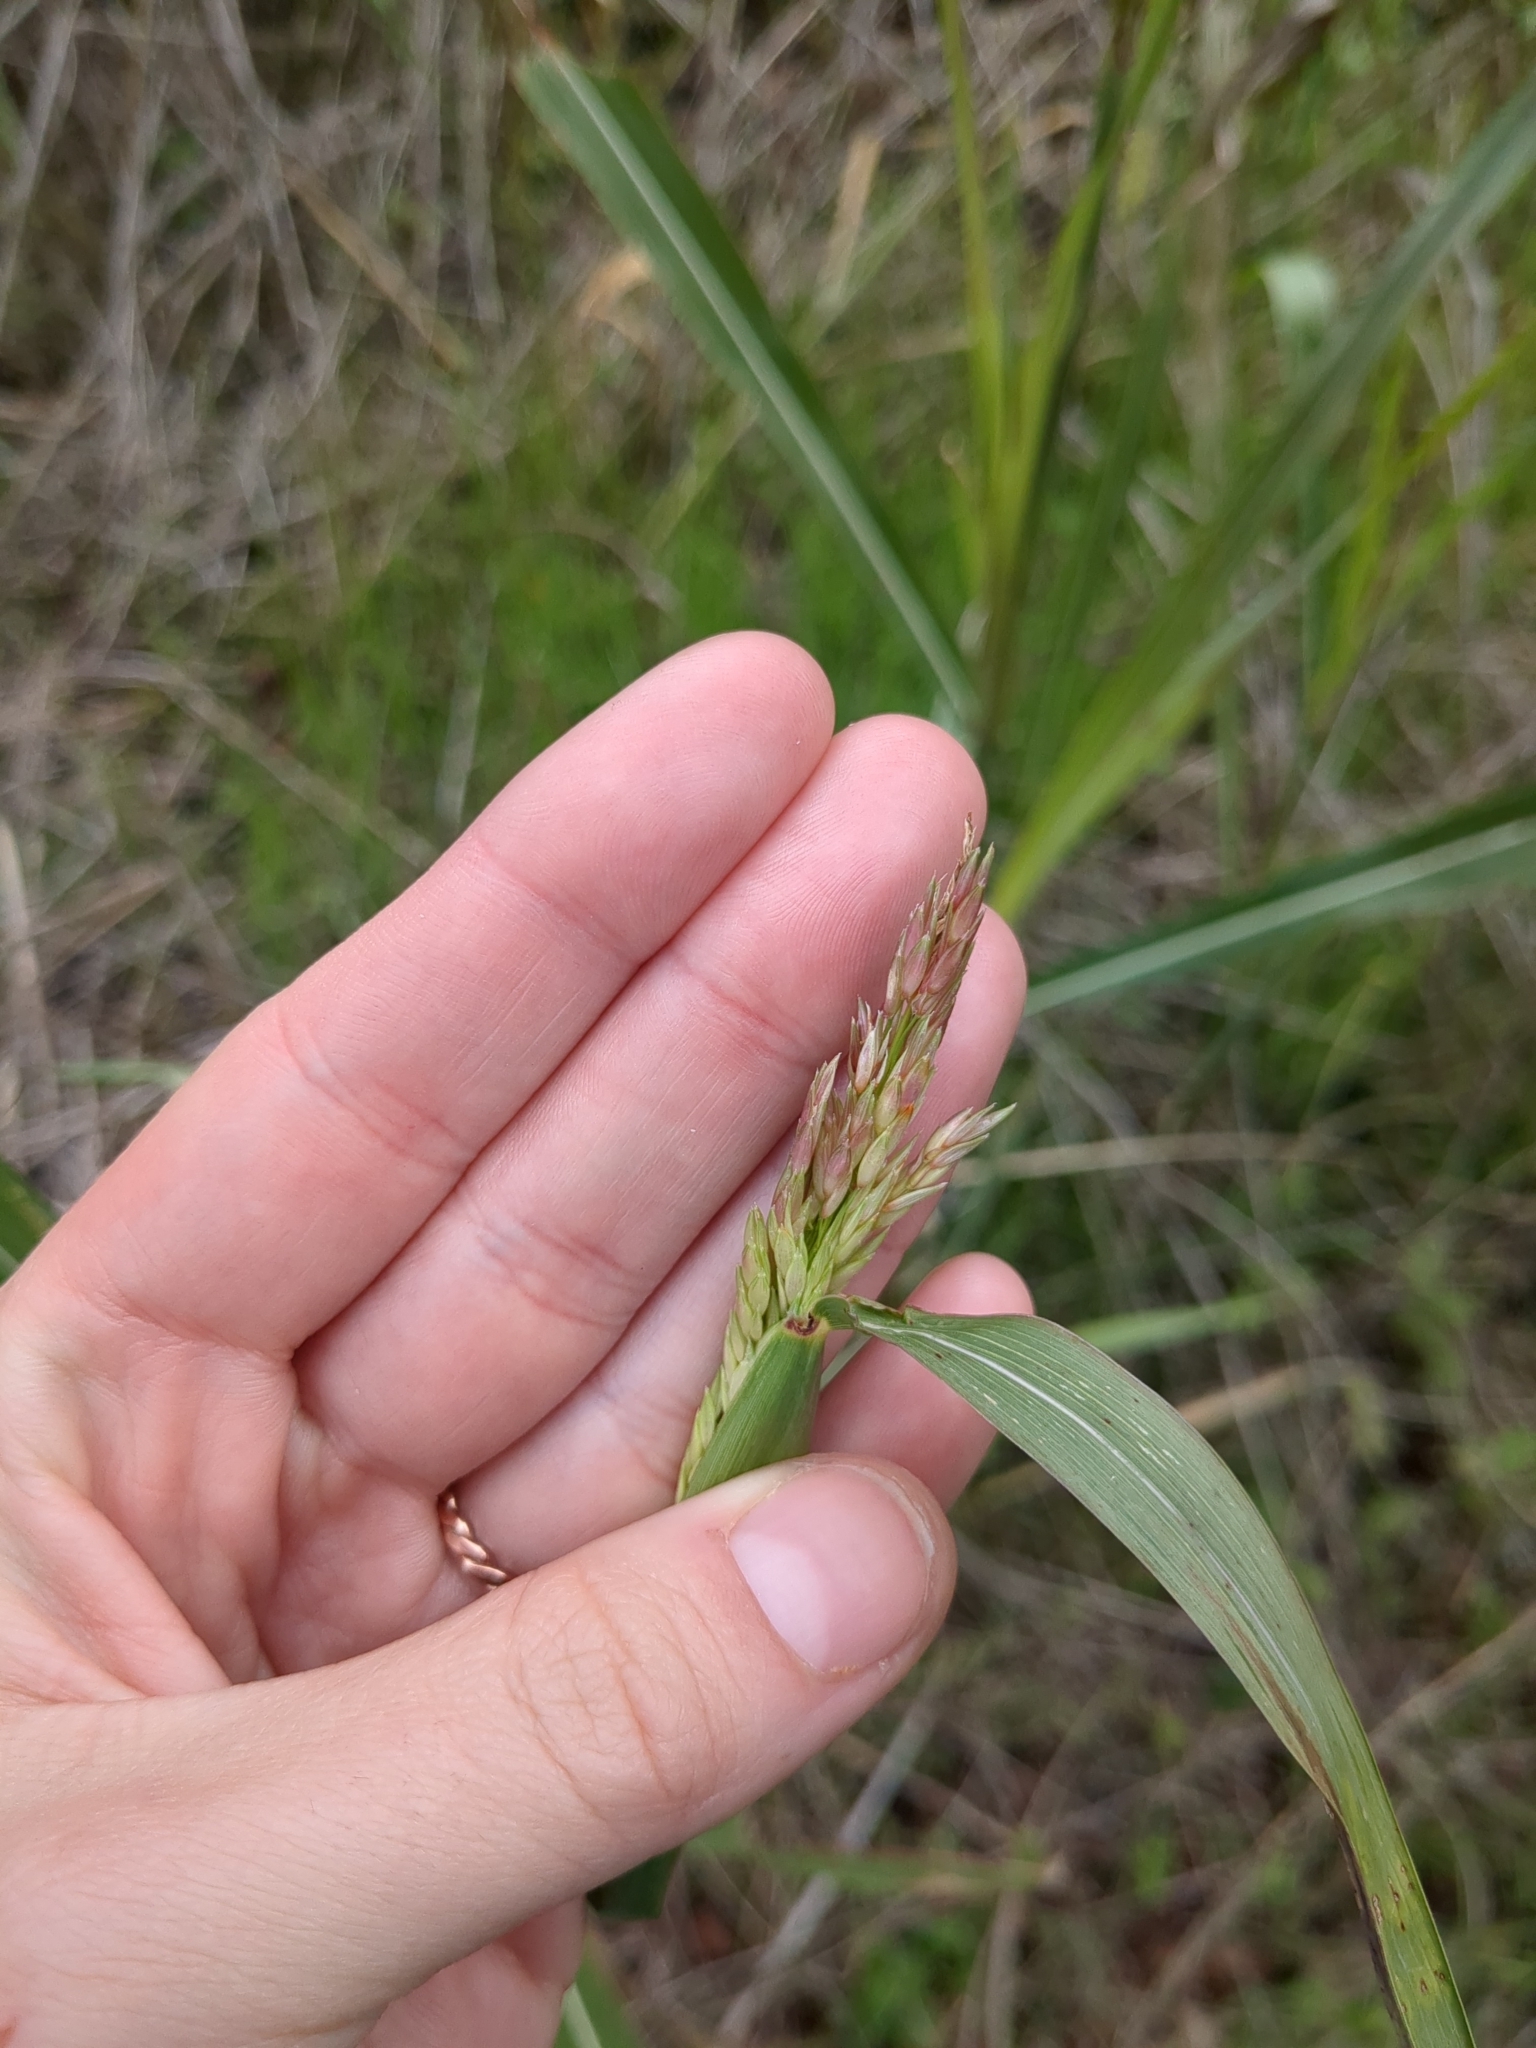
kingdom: Plantae
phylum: Tracheophyta
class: Liliopsida
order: Poales
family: Poaceae
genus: Sorghum
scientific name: Sorghum halepense
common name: Johnson-grass
